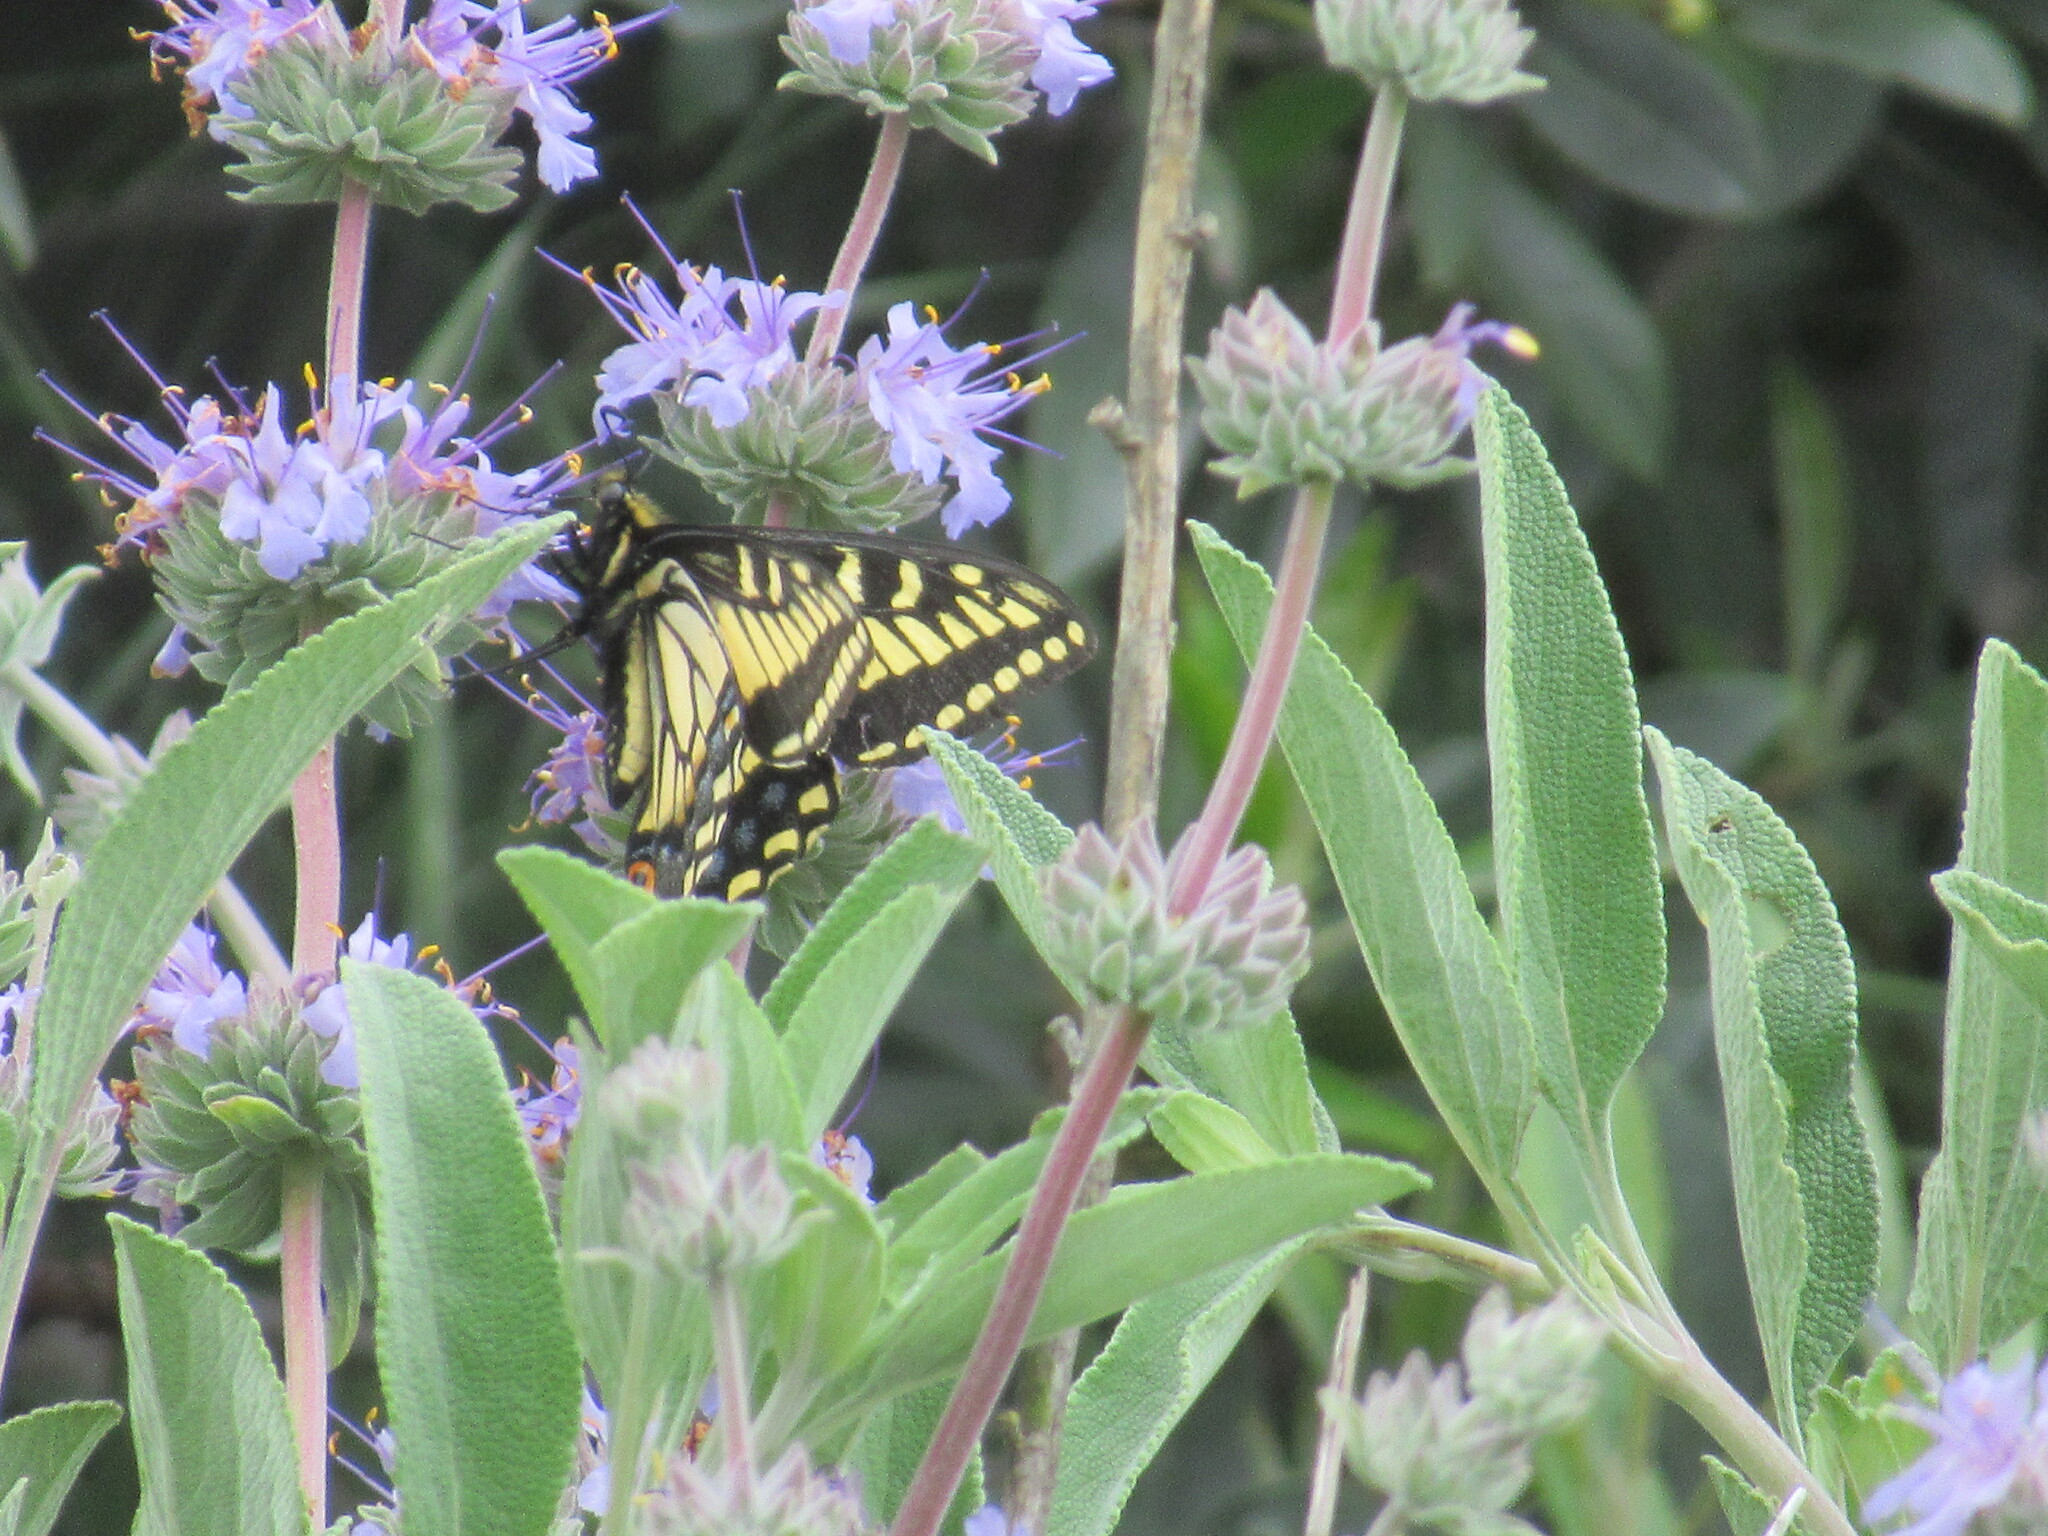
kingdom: Animalia
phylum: Arthropoda
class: Insecta
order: Lepidoptera
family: Papilionidae
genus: Papilio
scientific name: Papilio zelicaon
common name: Anise swallowtail
